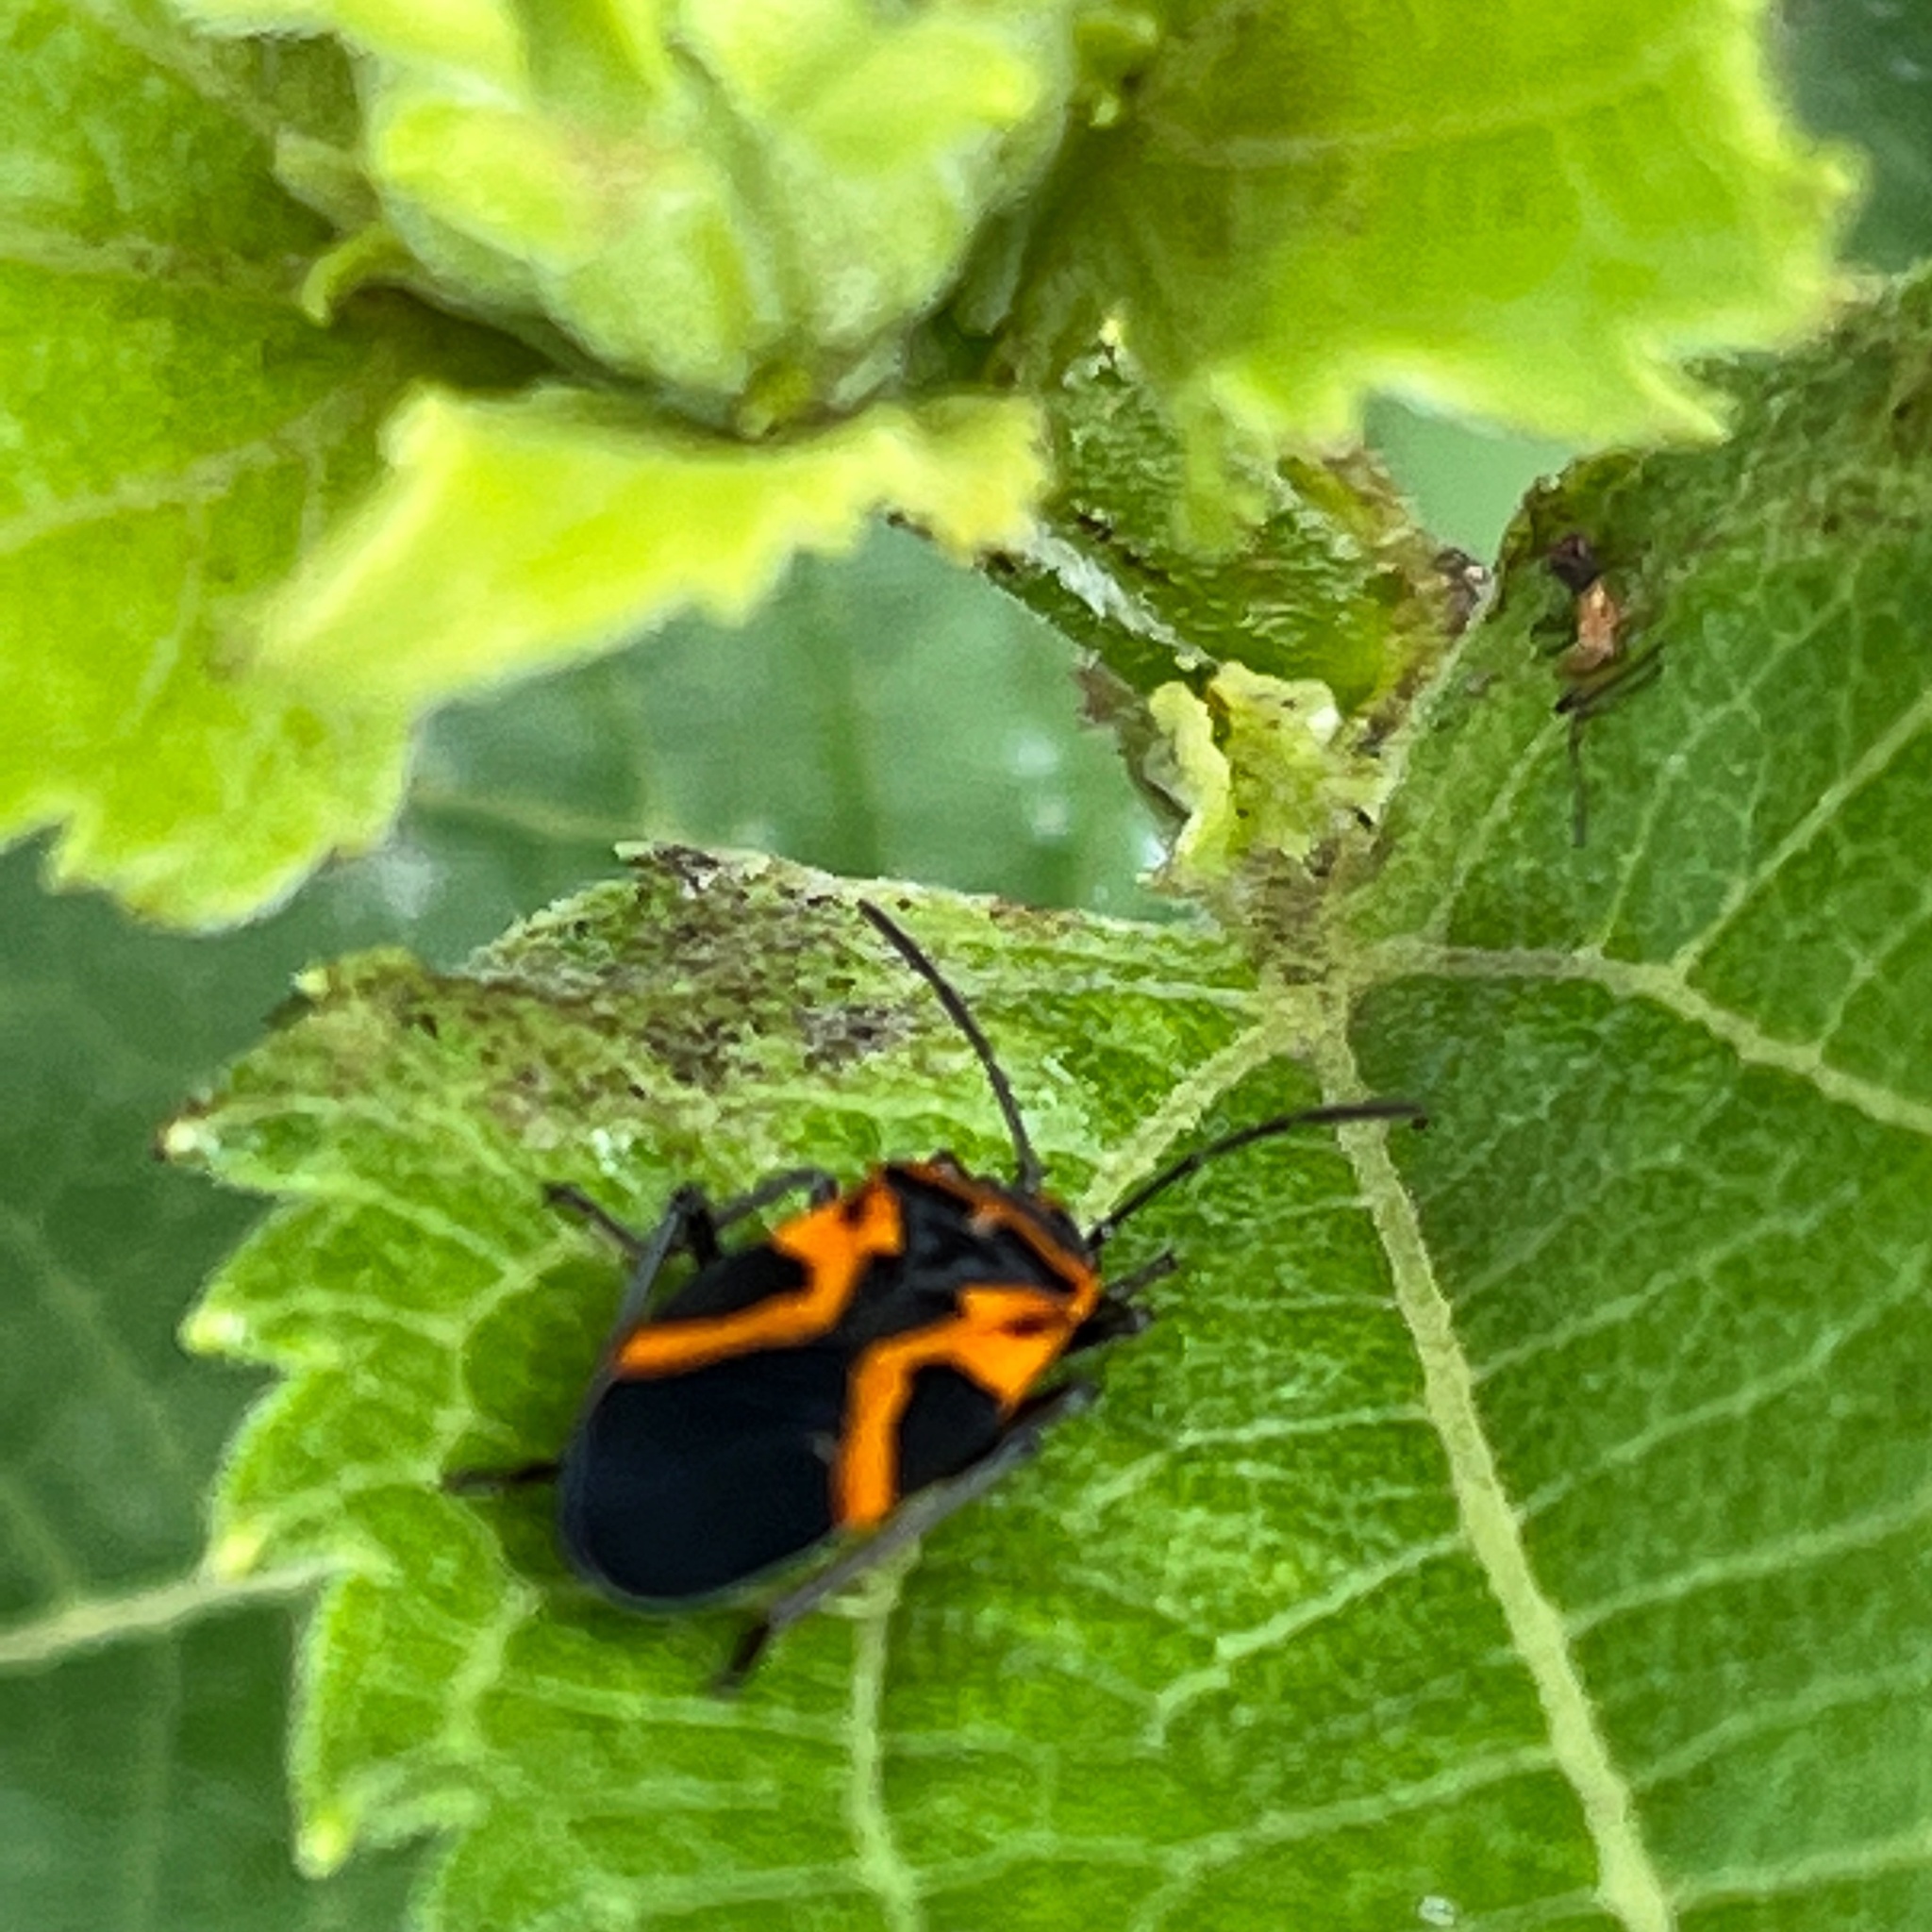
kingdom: Animalia
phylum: Arthropoda
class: Insecta
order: Hemiptera
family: Lygaeidae
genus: Lygaeus
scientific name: Lygaeus turcicus
